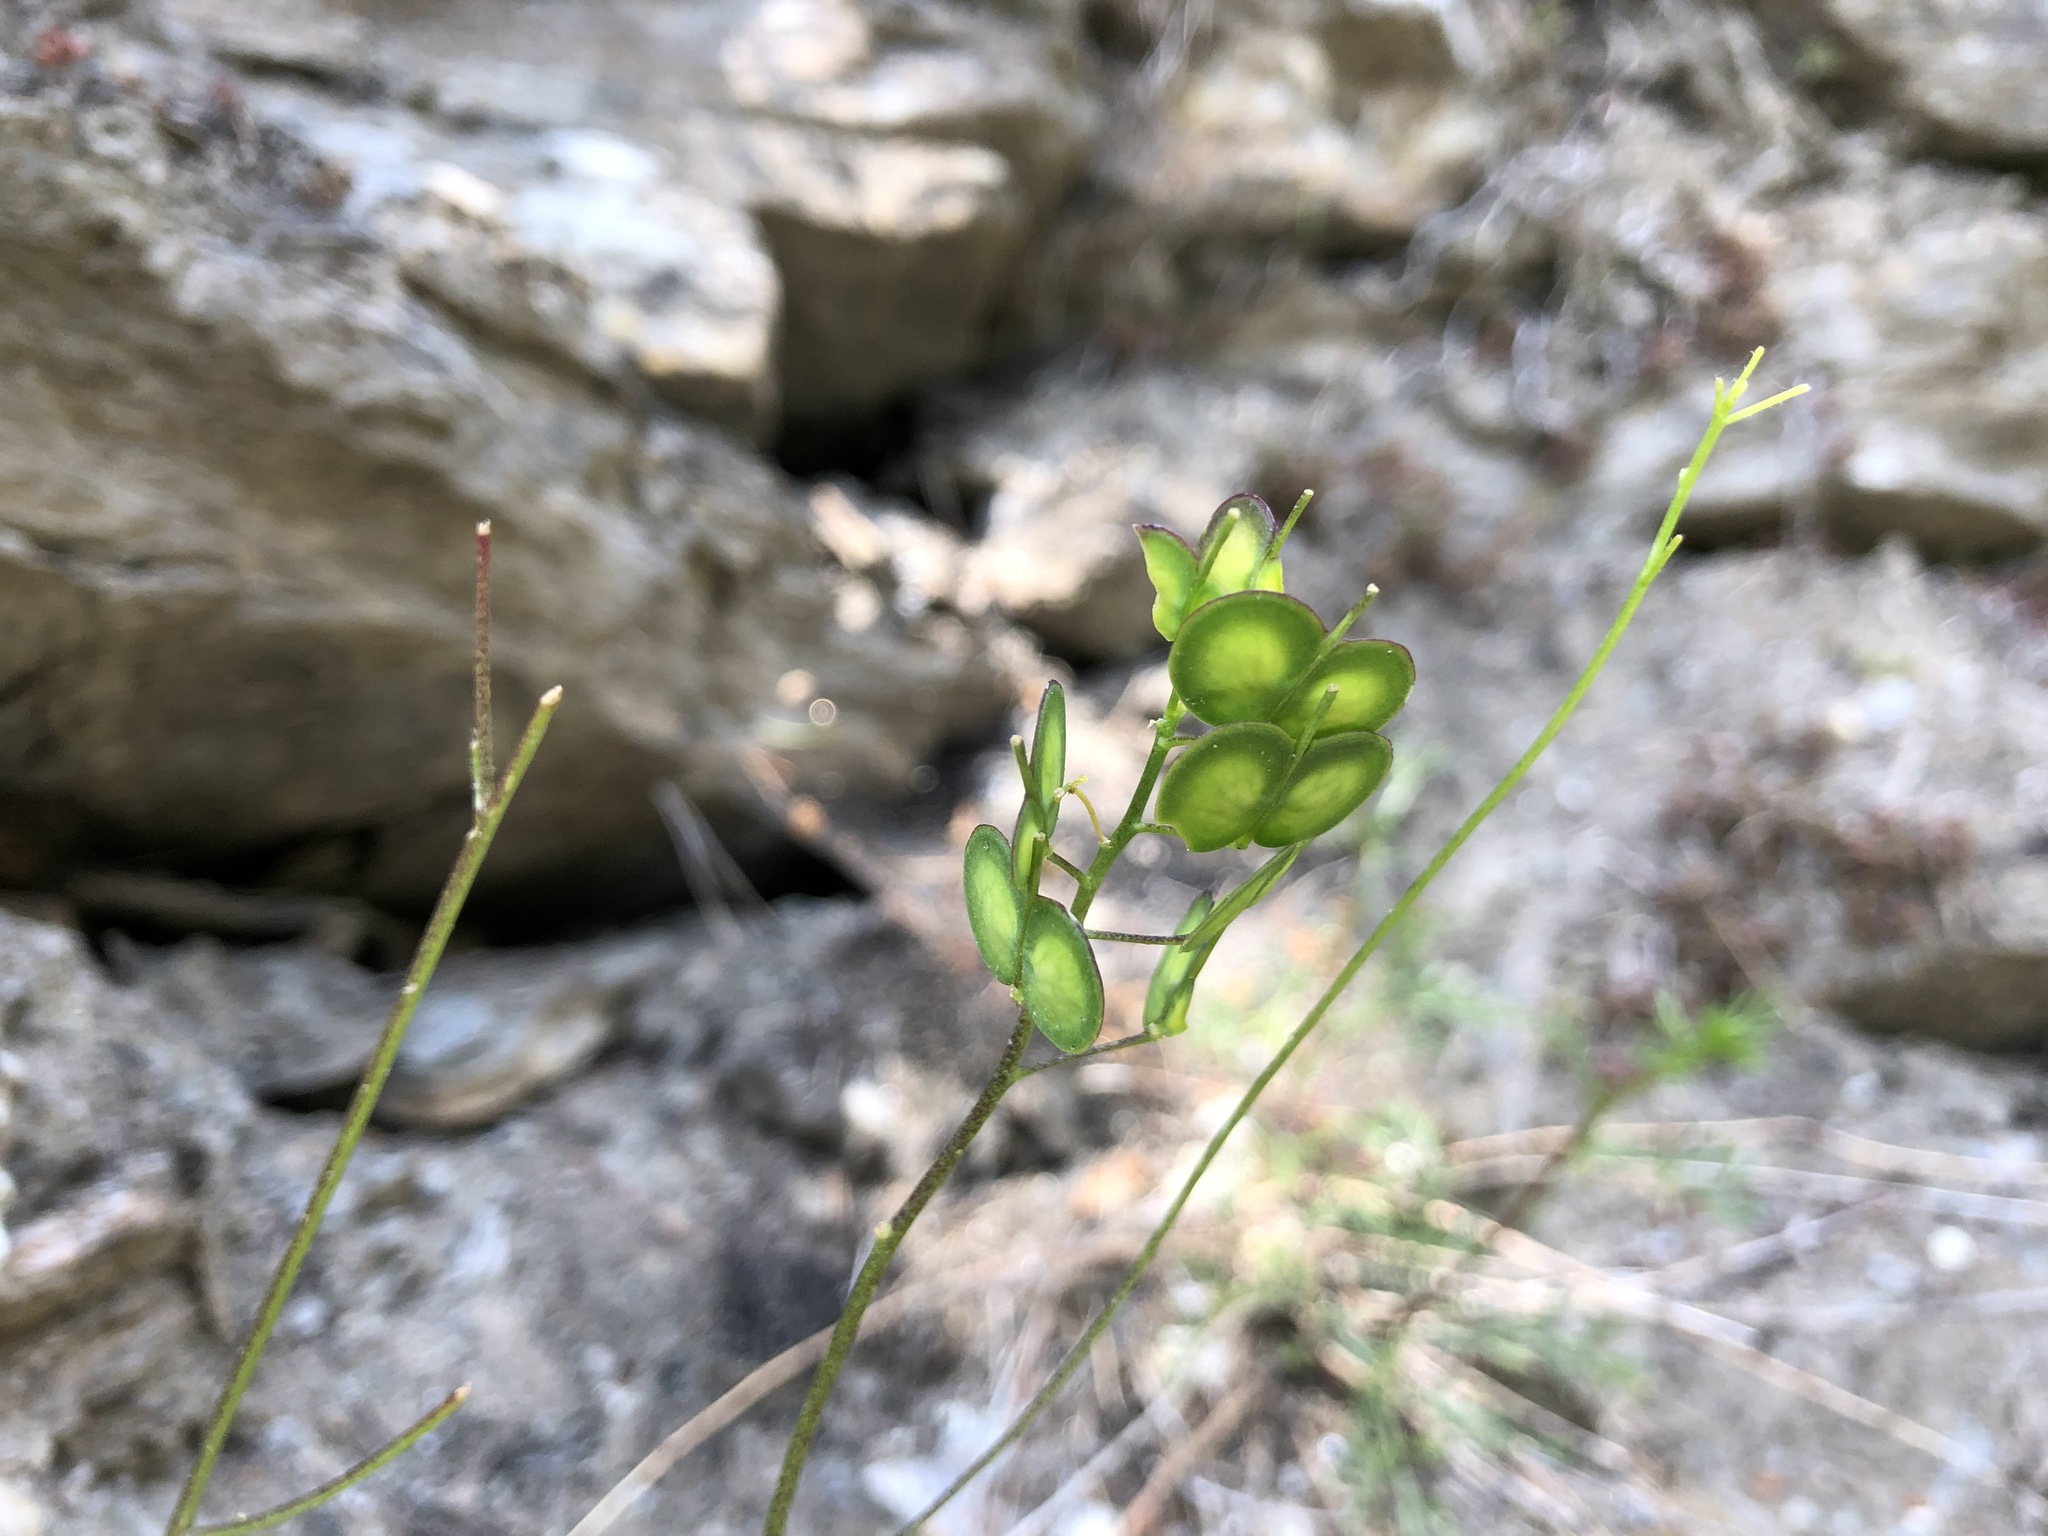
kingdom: Plantae
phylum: Tracheophyta
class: Magnoliopsida
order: Brassicales
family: Brassicaceae
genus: Biscutella
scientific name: Biscutella laevigata
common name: Buckler mustard
